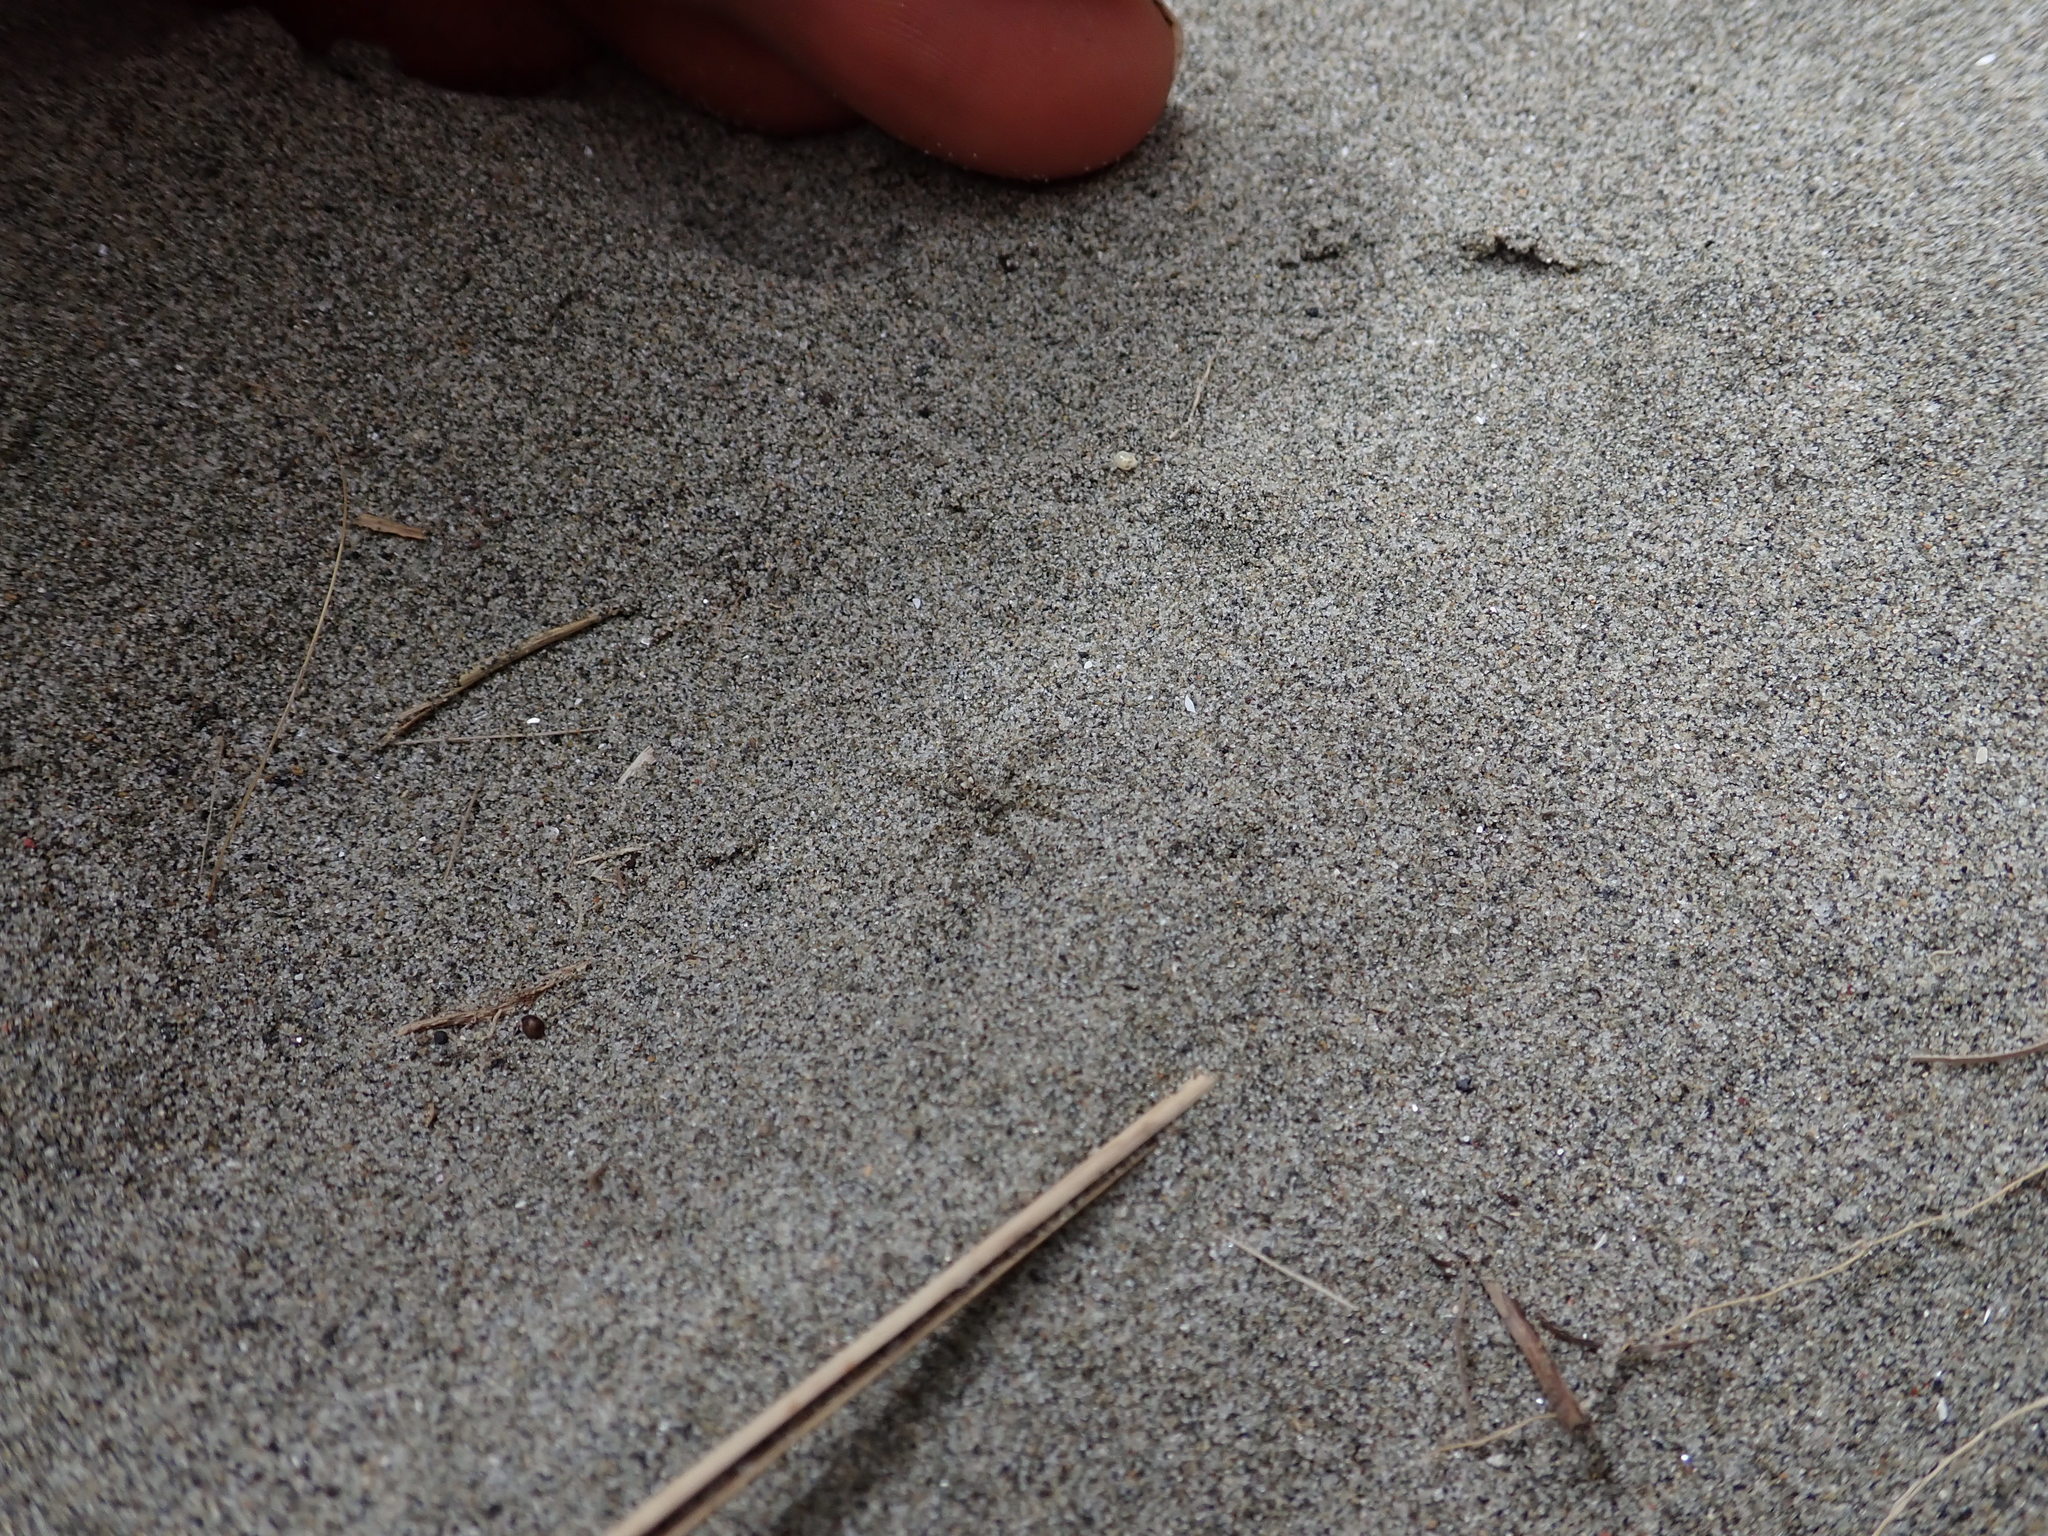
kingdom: Animalia
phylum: Arthropoda
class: Arachnida
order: Araneae
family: Lycosidae
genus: Anoteropsis
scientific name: Anoteropsis litoralis
